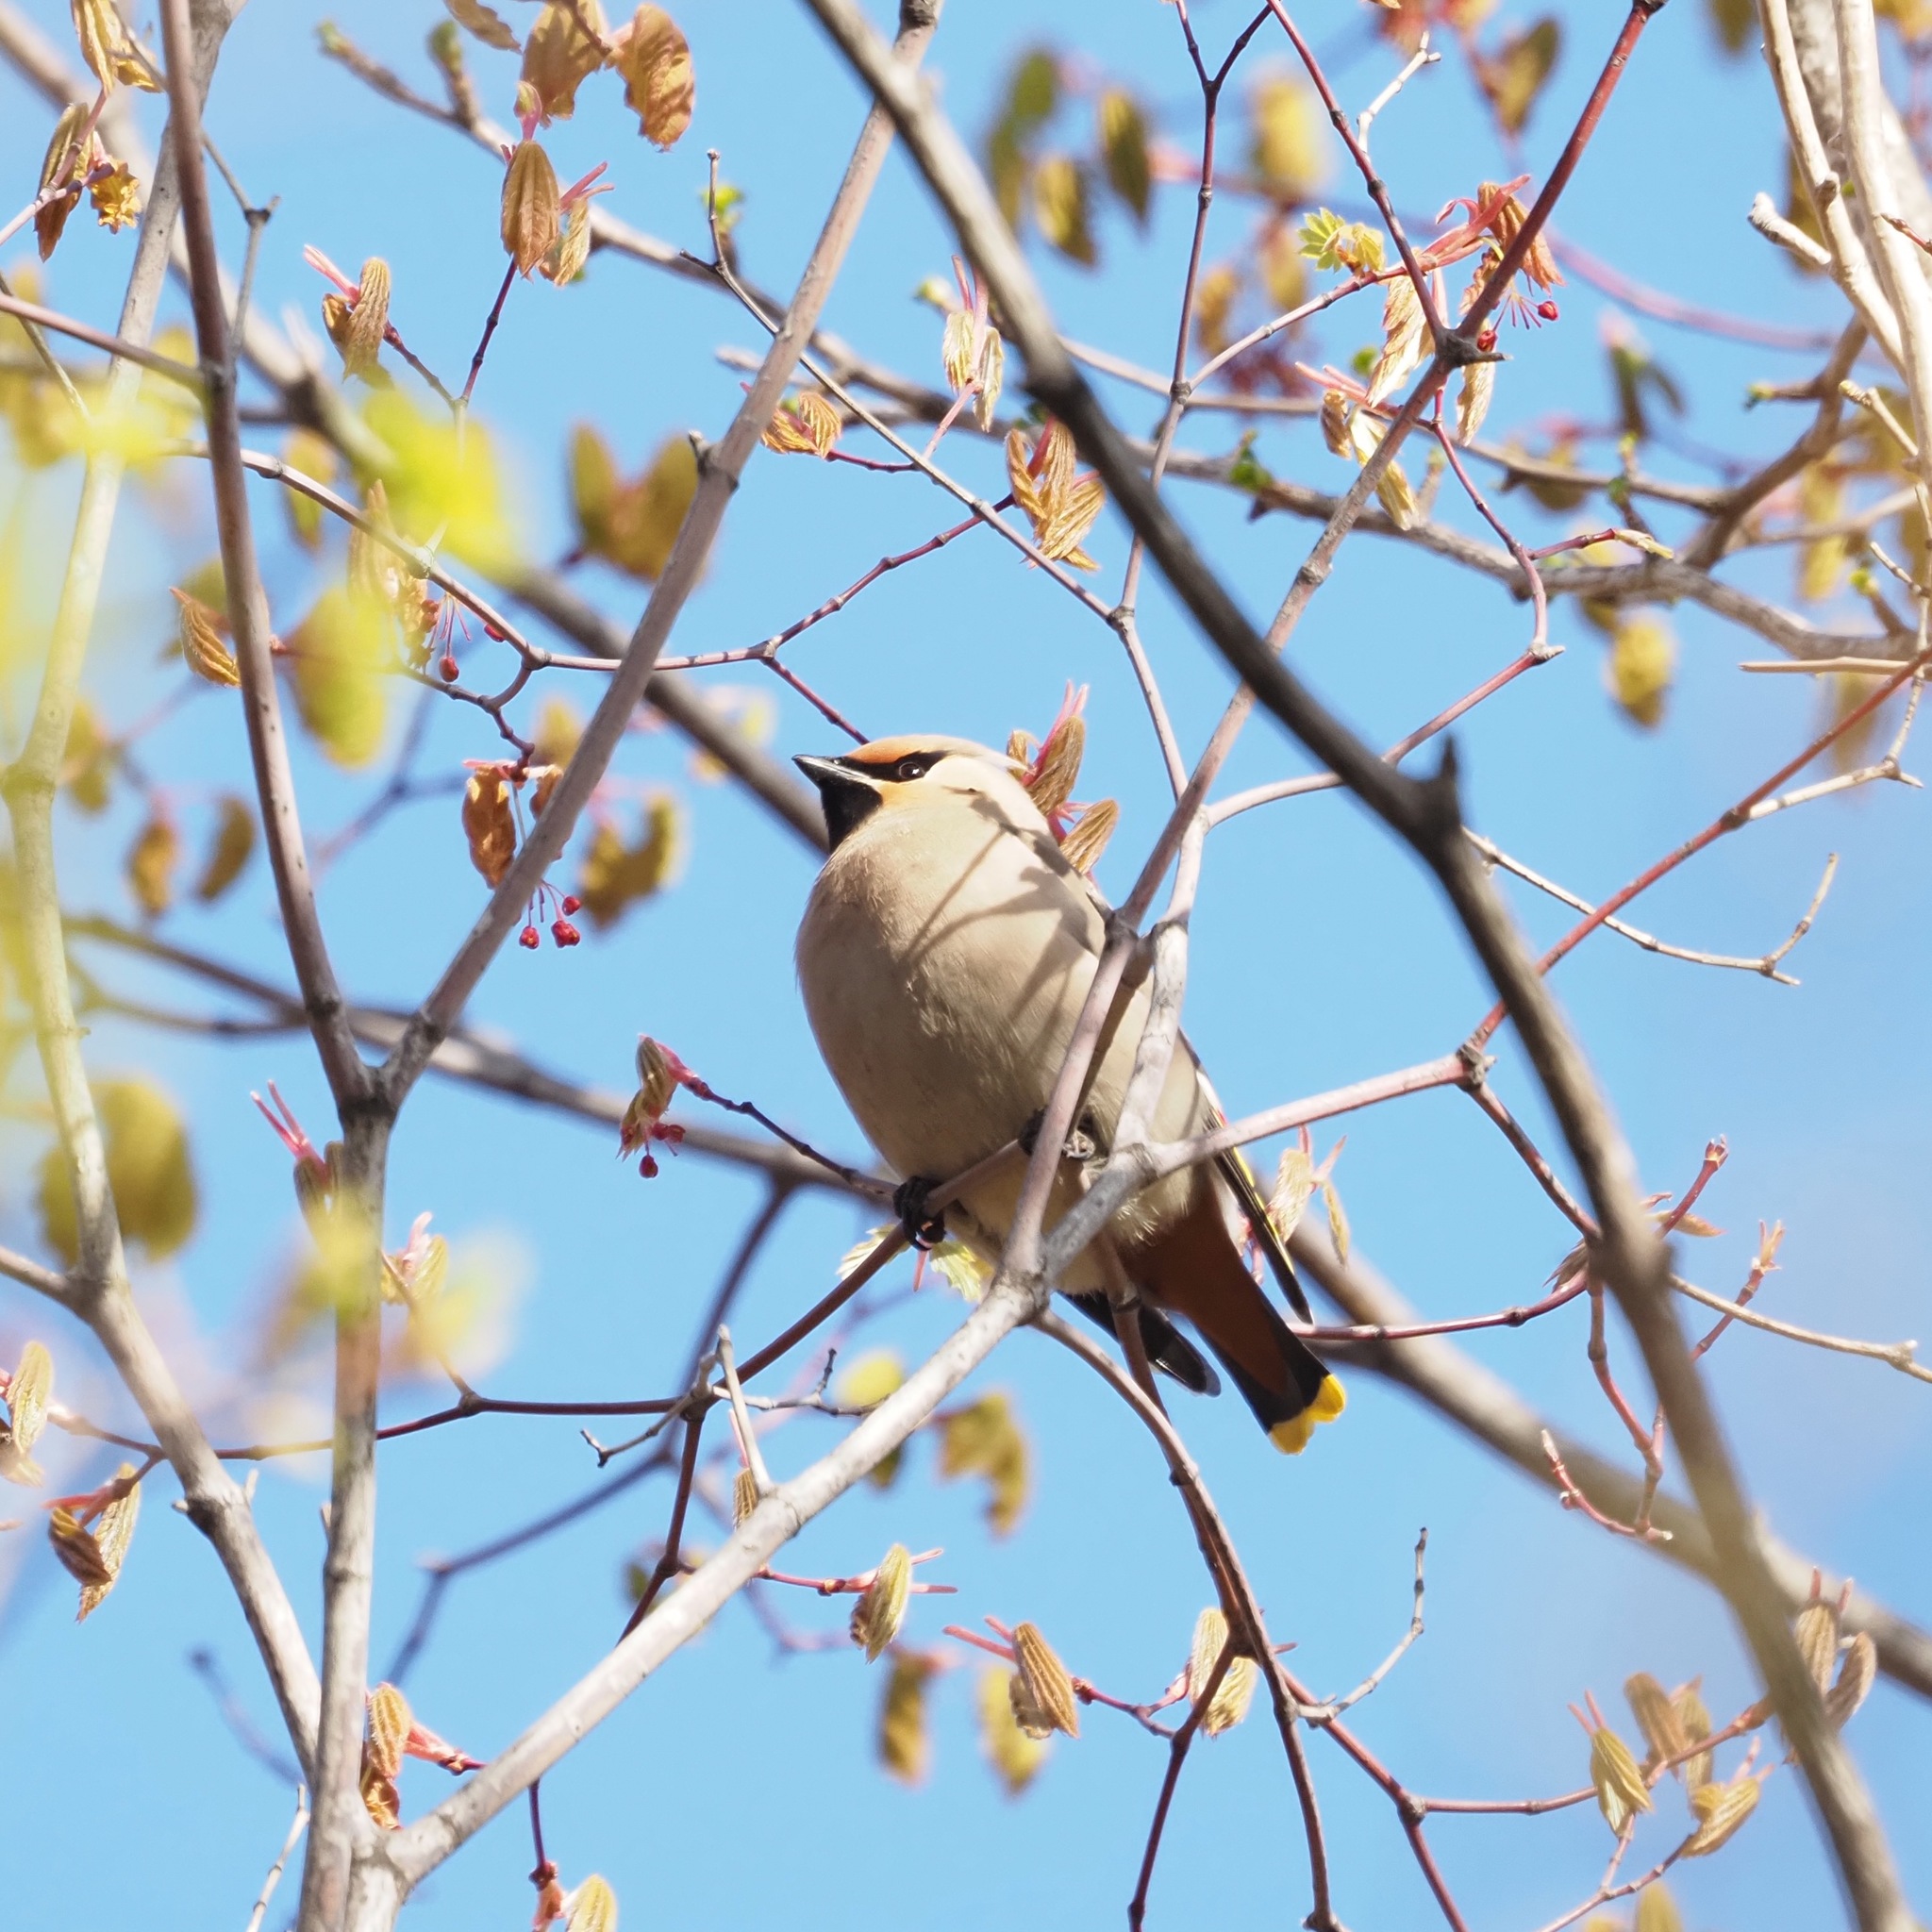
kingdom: Animalia
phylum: Chordata
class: Aves
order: Passeriformes
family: Bombycillidae
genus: Bombycilla
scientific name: Bombycilla garrulus
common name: Bohemian waxwing
